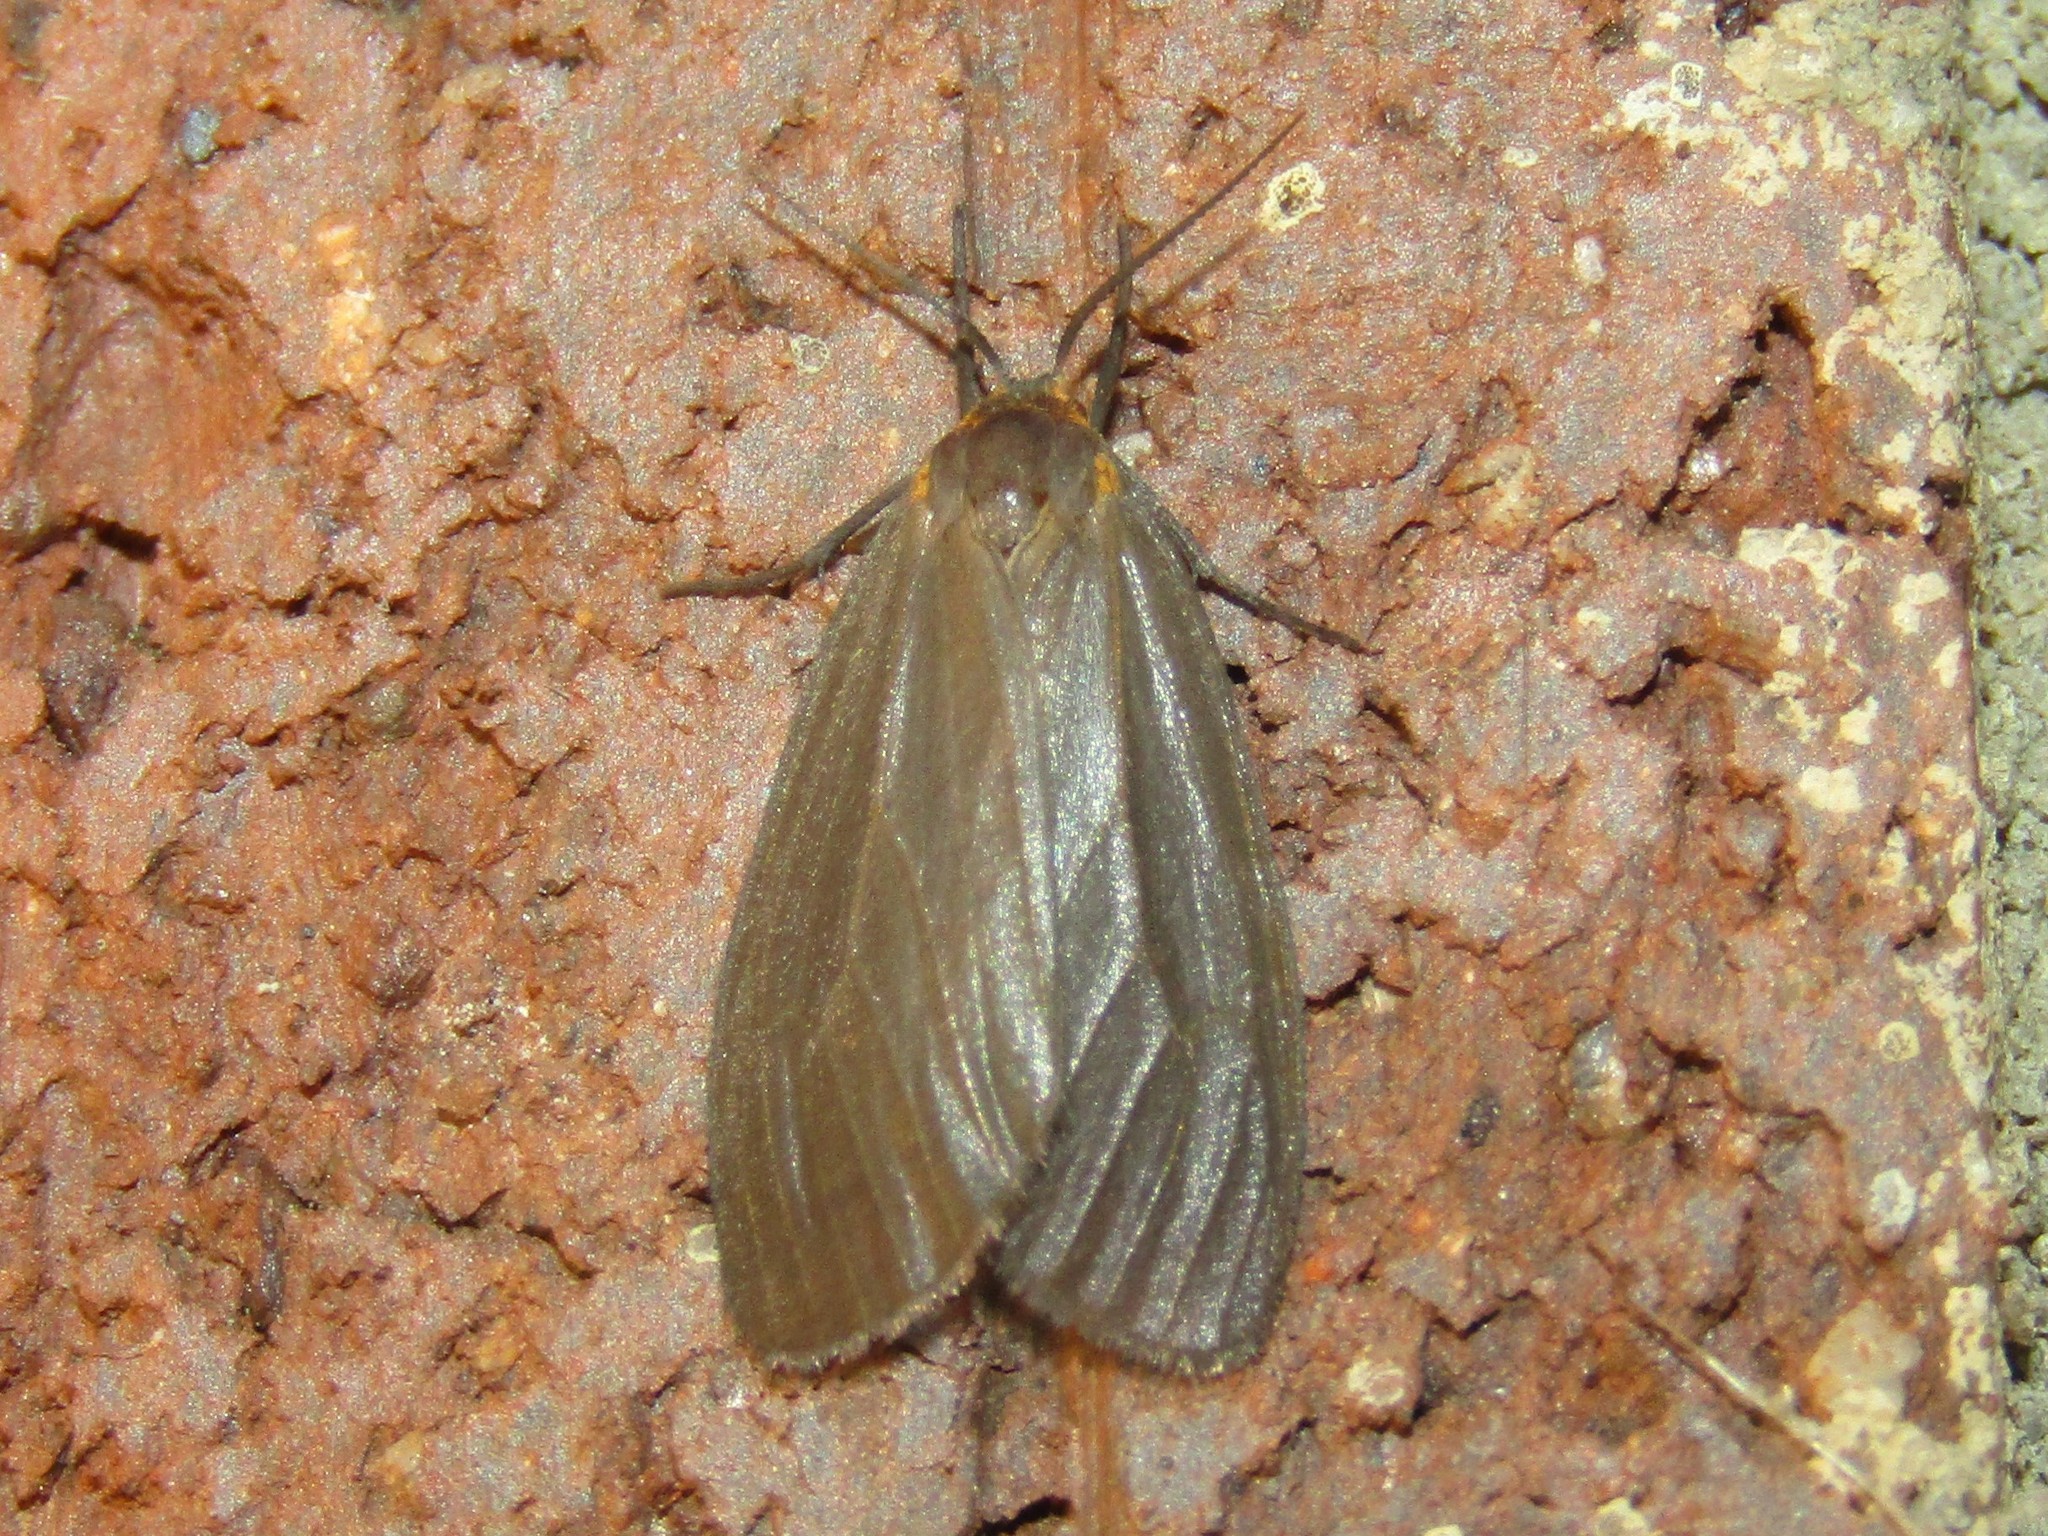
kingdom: Animalia
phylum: Arthropoda
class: Insecta
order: Lepidoptera
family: Erebidae
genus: Pagara
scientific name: Pagara simplex
